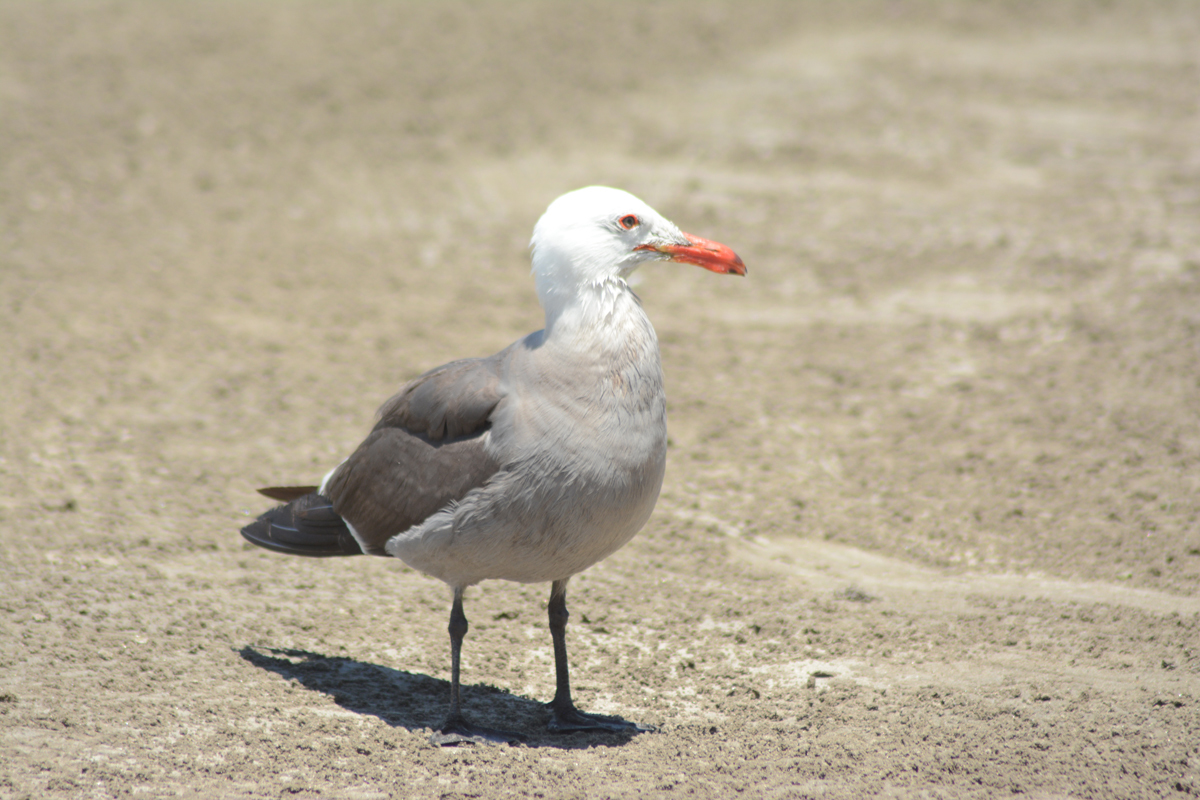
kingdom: Animalia
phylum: Chordata
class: Aves
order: Charadriiformes
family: Laridae
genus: Larus
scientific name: Larus heermanni
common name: Heermann's gull
